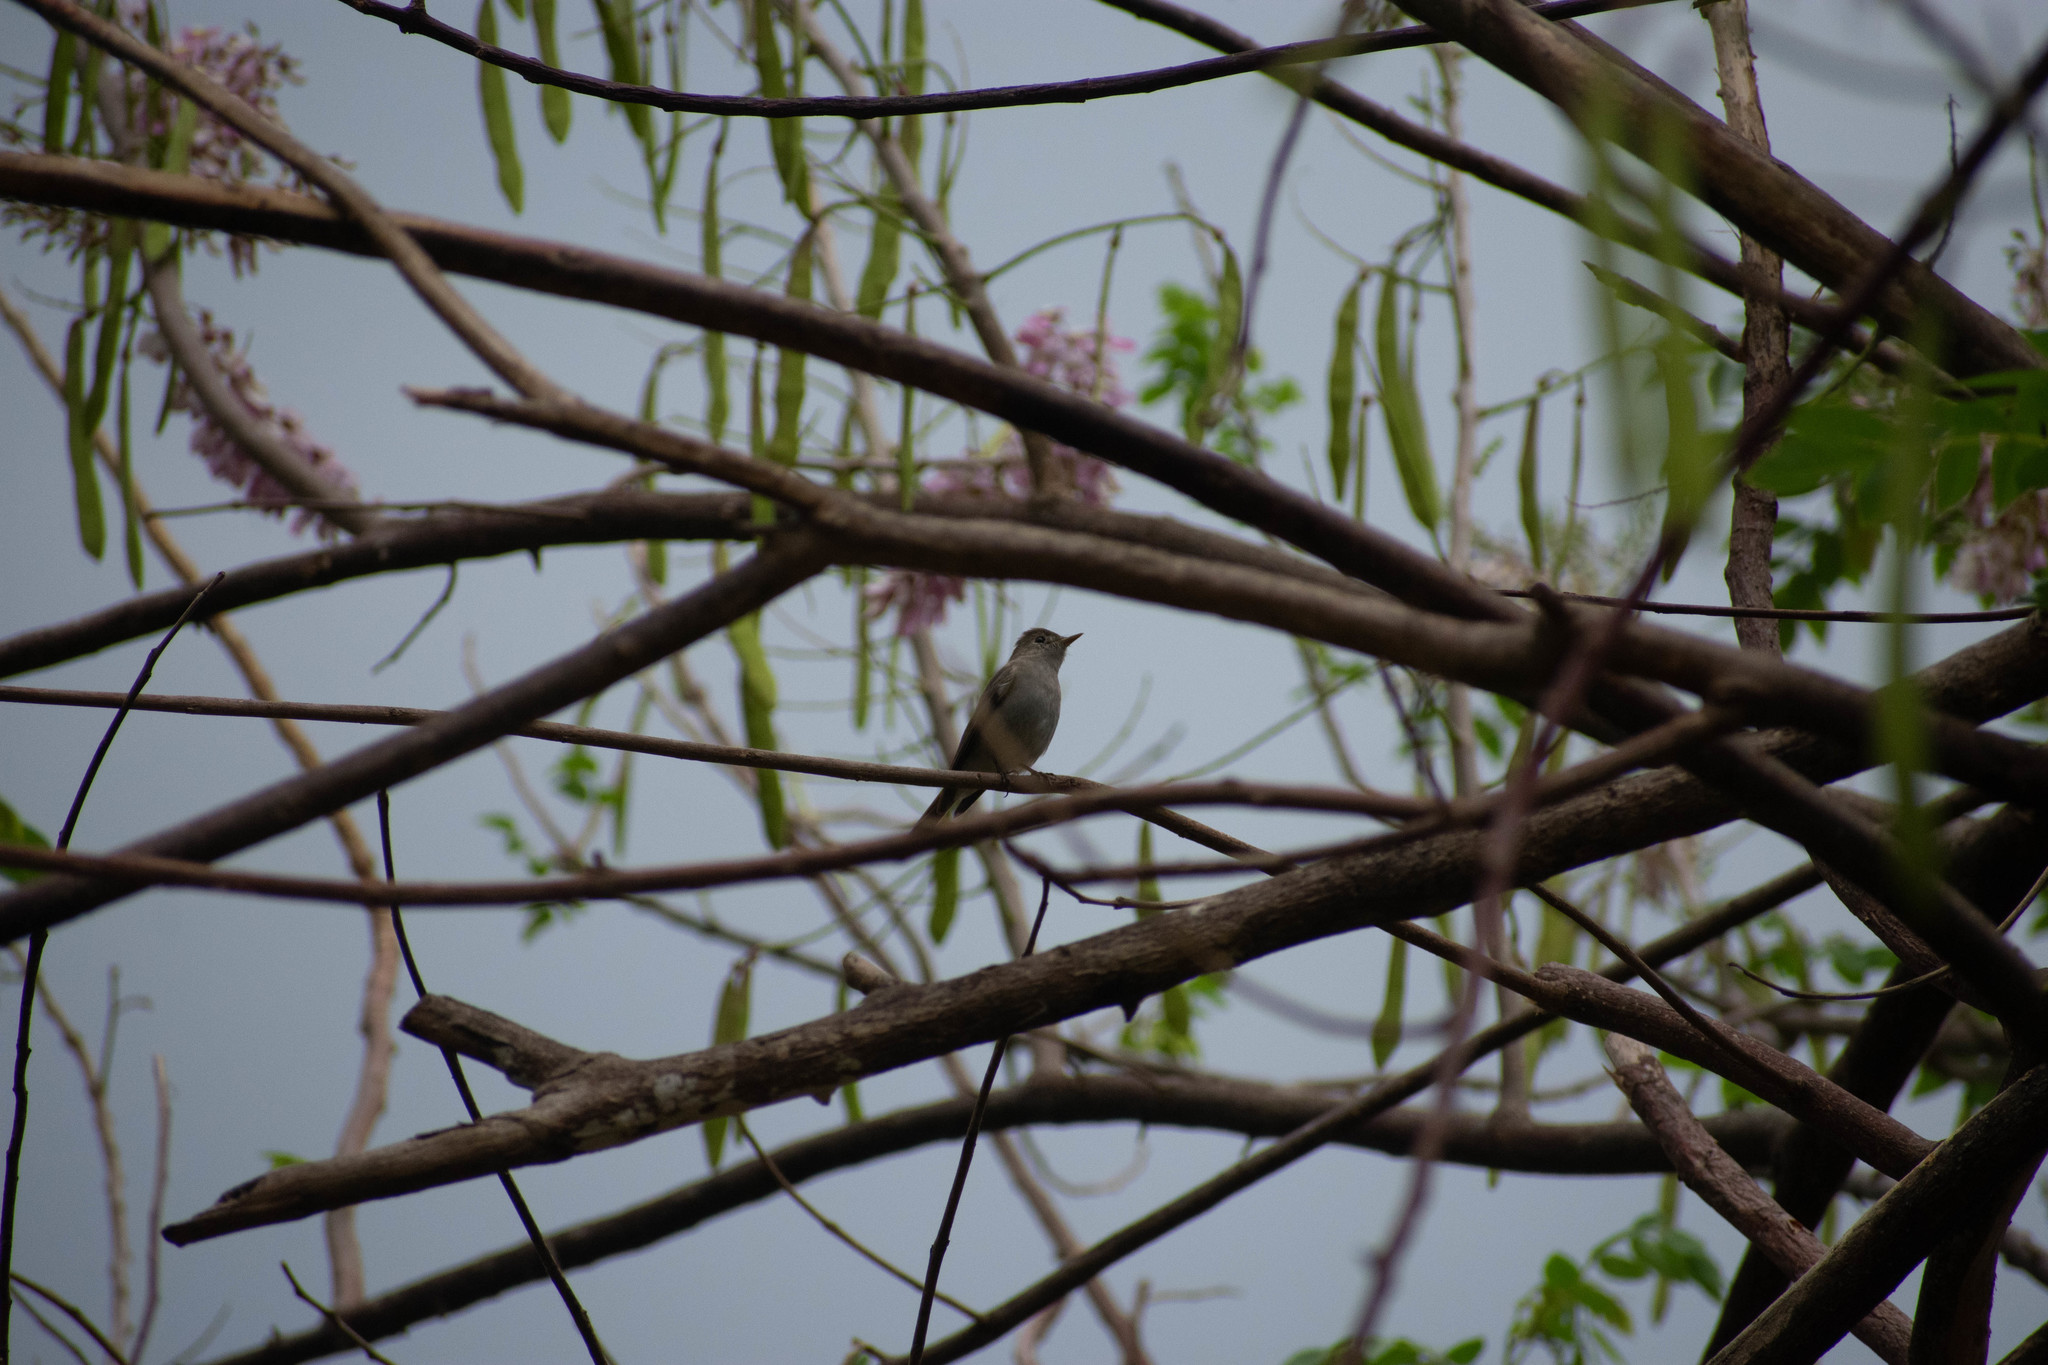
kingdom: Animalia
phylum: Chordata
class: Aves
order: Passeriformes
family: Muscicapidae
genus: Muscicapa
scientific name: Muscicapa ruficauda
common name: Rusty-tailed flycatcher
